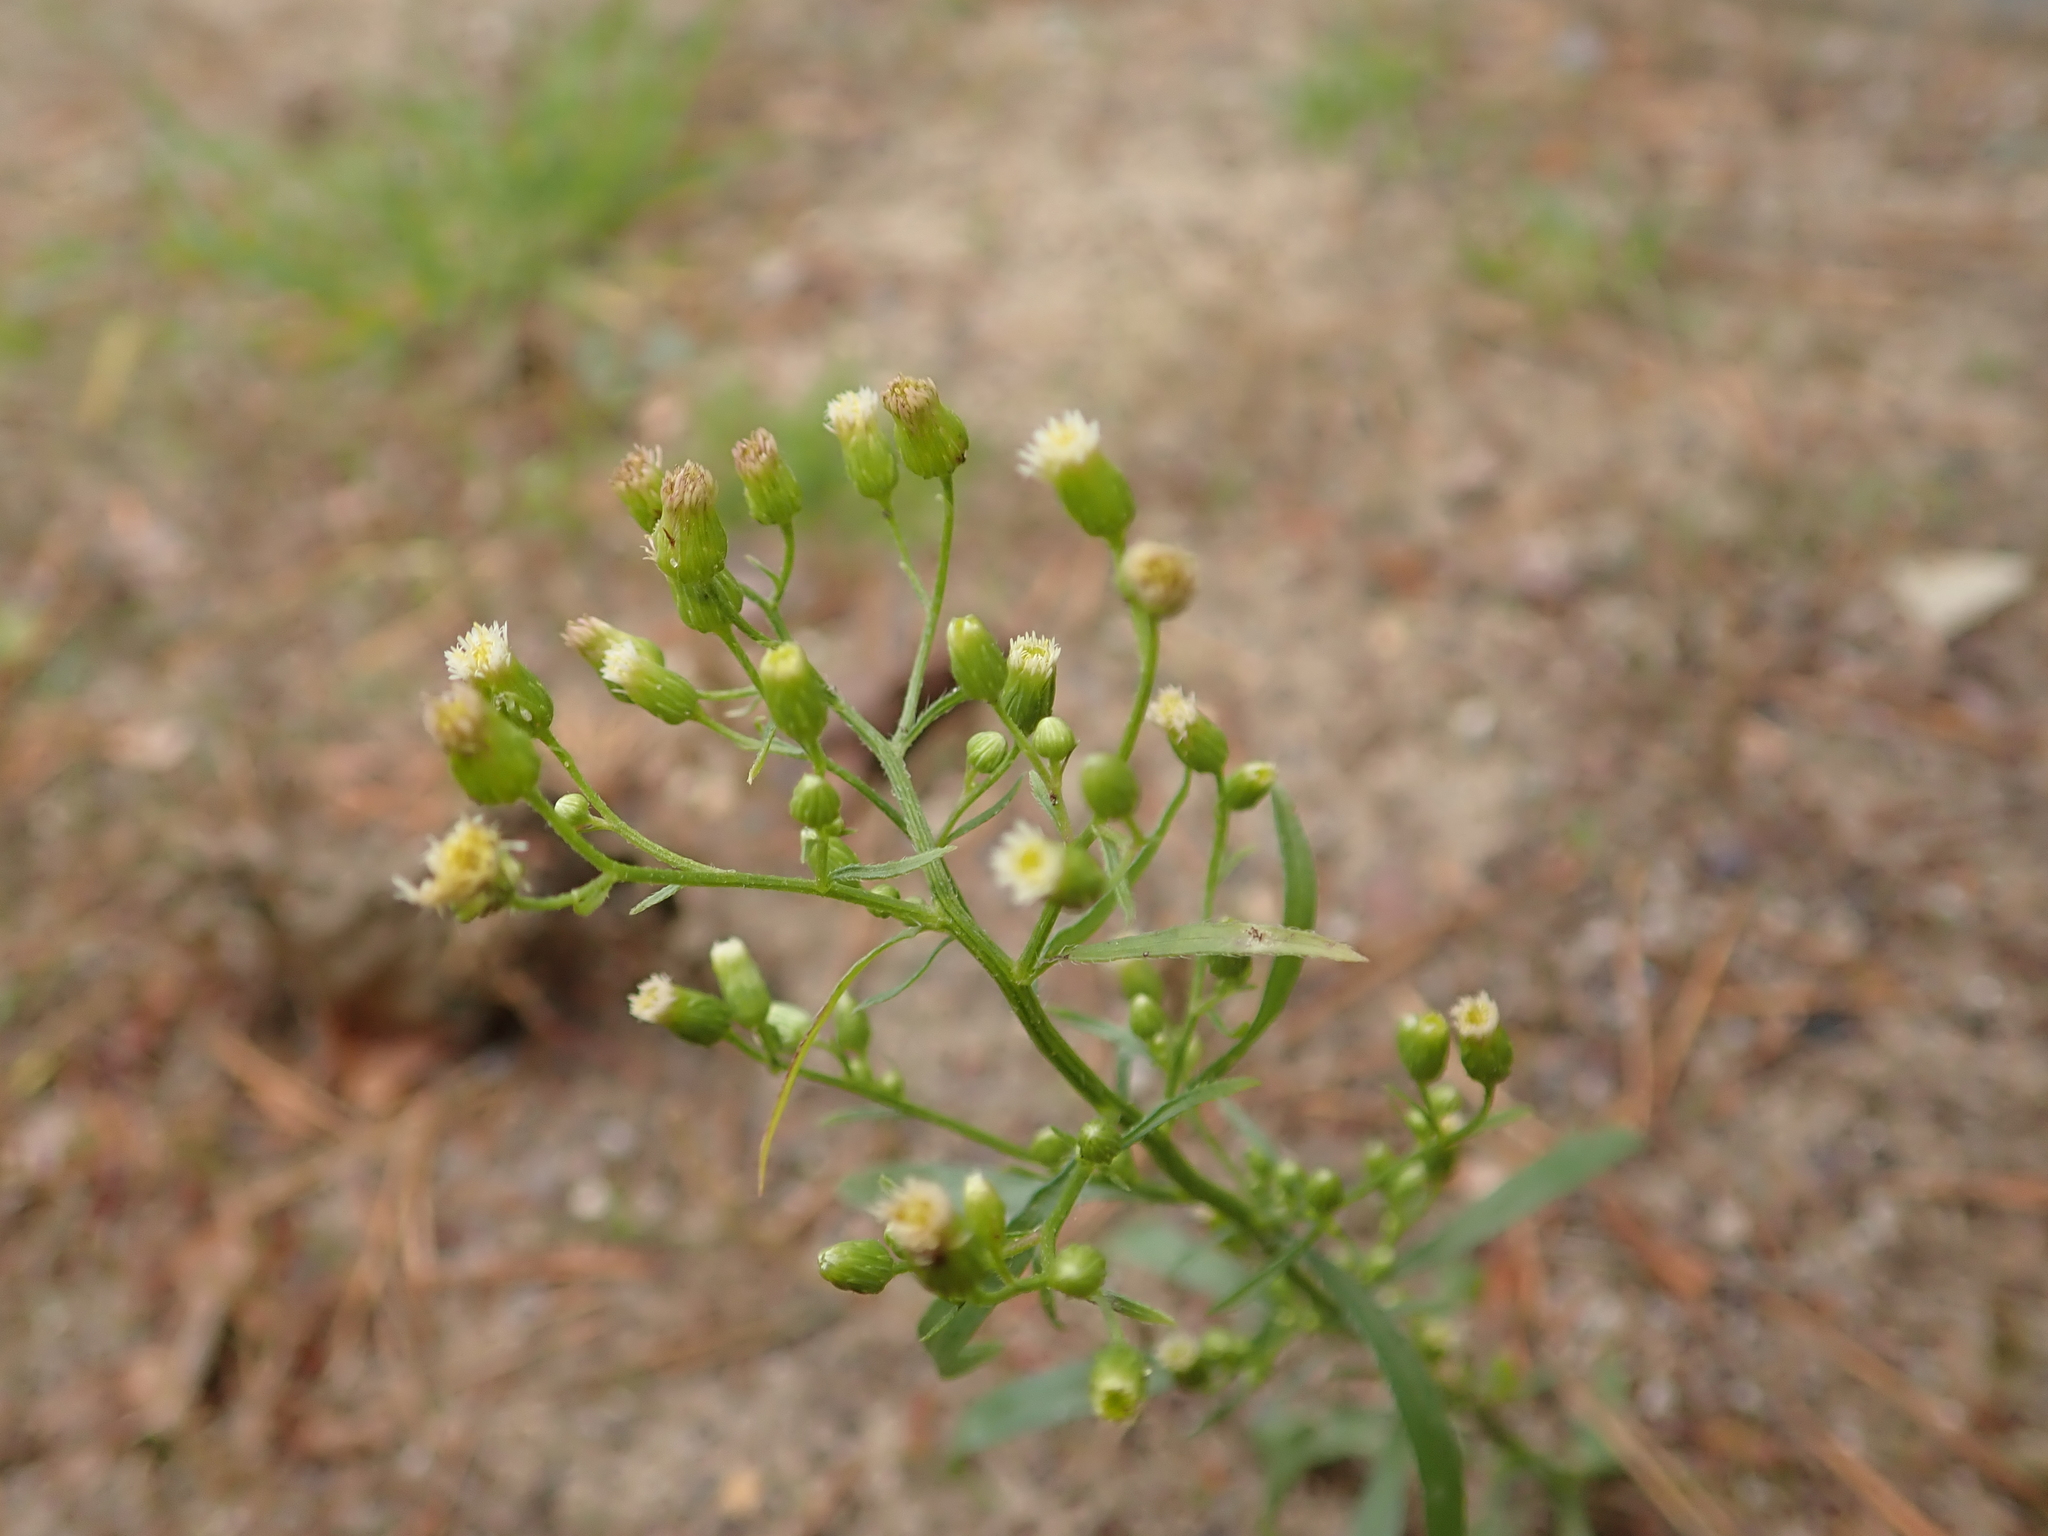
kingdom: Plantae
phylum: Tracheophyta
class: Magnoliopsida
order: Asterales
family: Asteraceae
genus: Erigeron
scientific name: Erigeron canadensis
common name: Canadian fleabane
